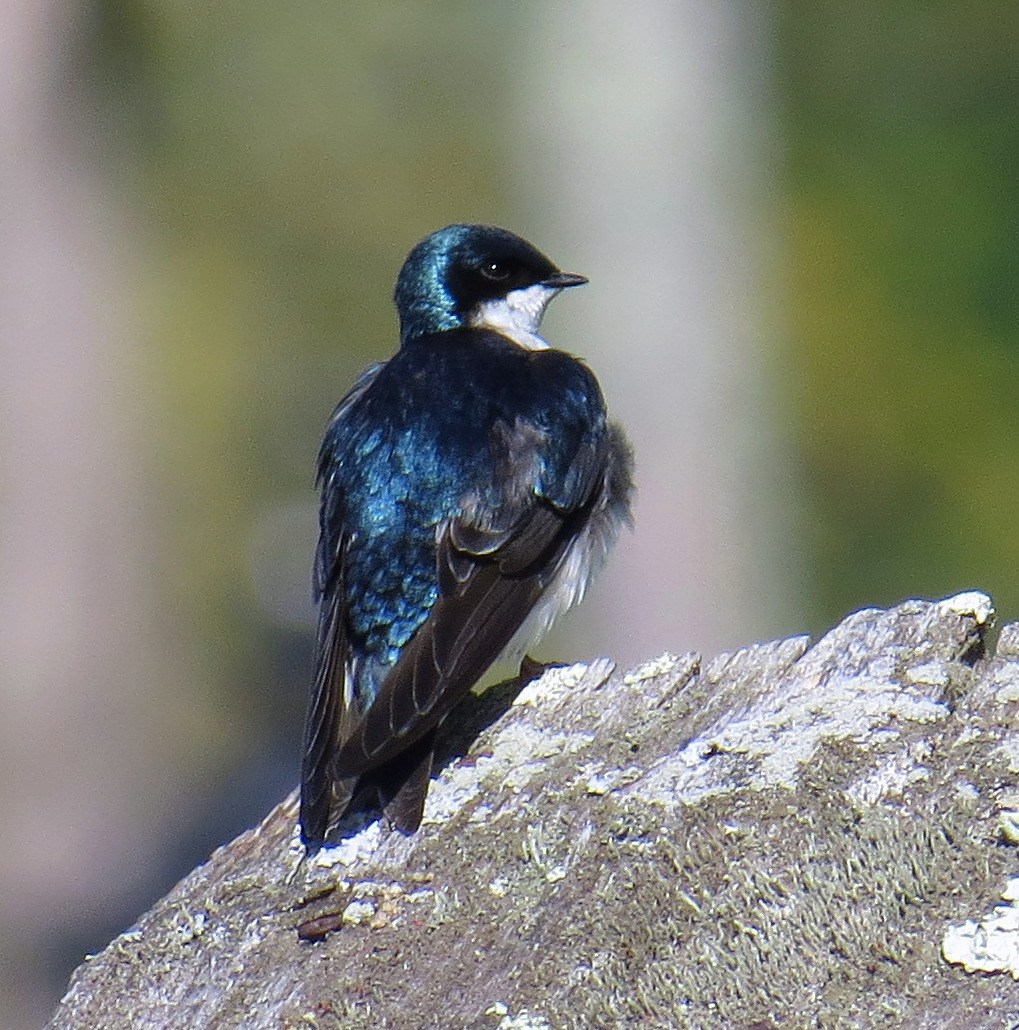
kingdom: Animalia
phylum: Chordata
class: Aves
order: Passeriformes
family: Hirundinidae
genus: Tachycineta
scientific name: Tachycineta bicolor
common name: Tree swallow
